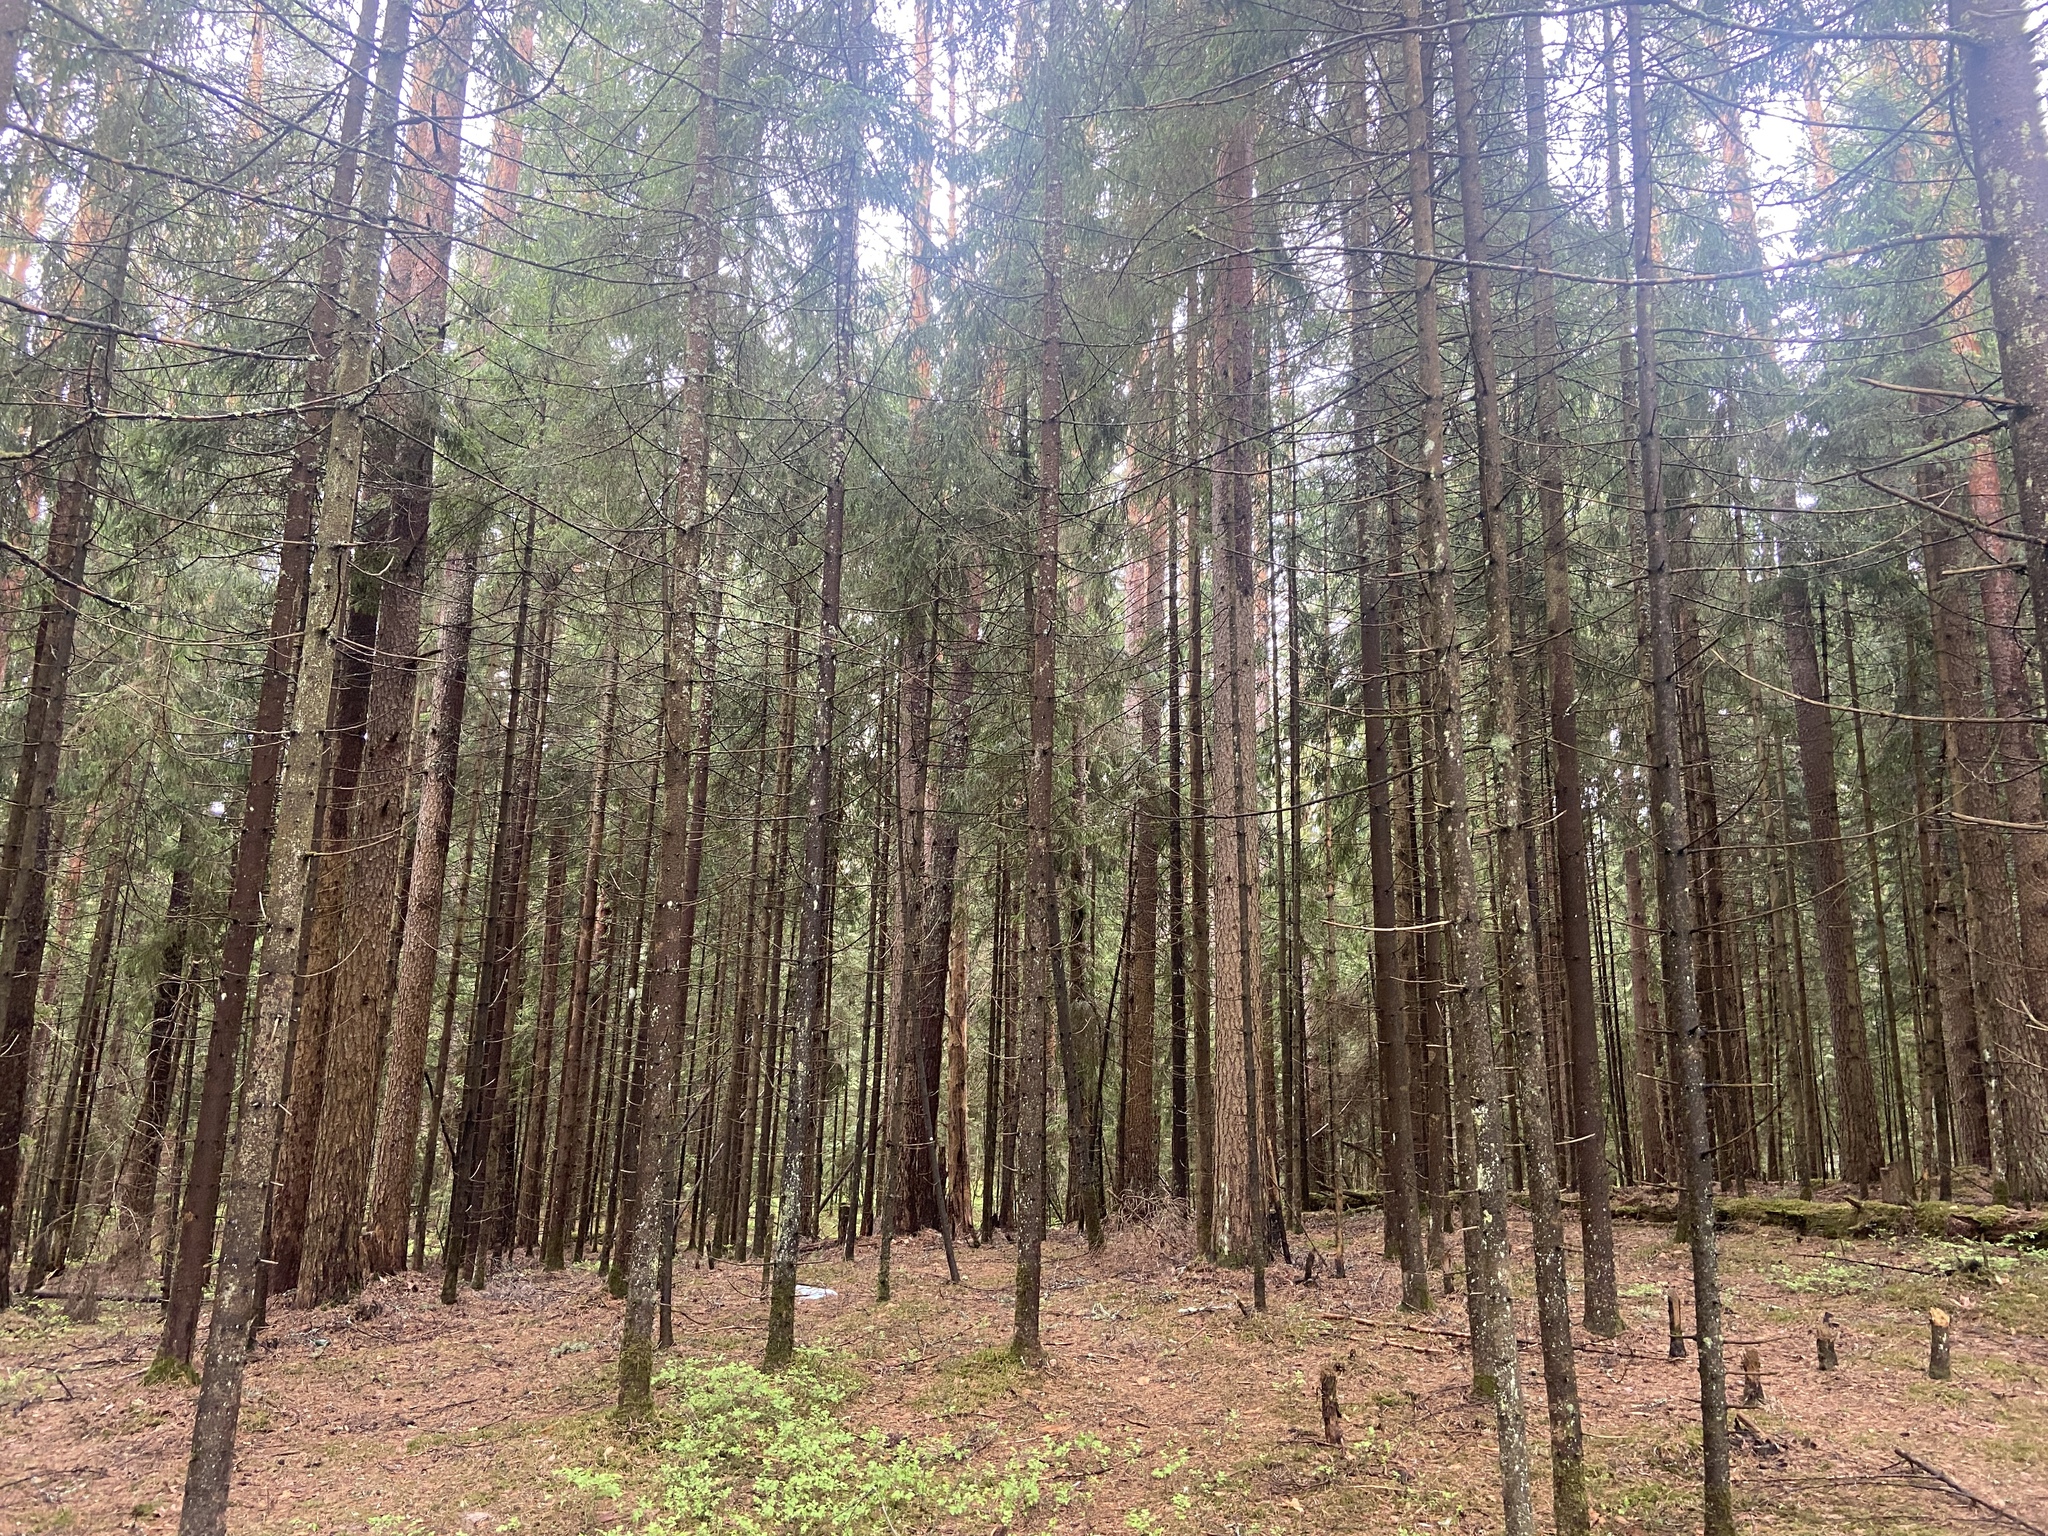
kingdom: Plantae
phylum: Tracheophyta
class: Pinopsida
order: Pinales
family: Pinaceae
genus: Pinus
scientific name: Pinus sylvestris
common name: Scots pine
